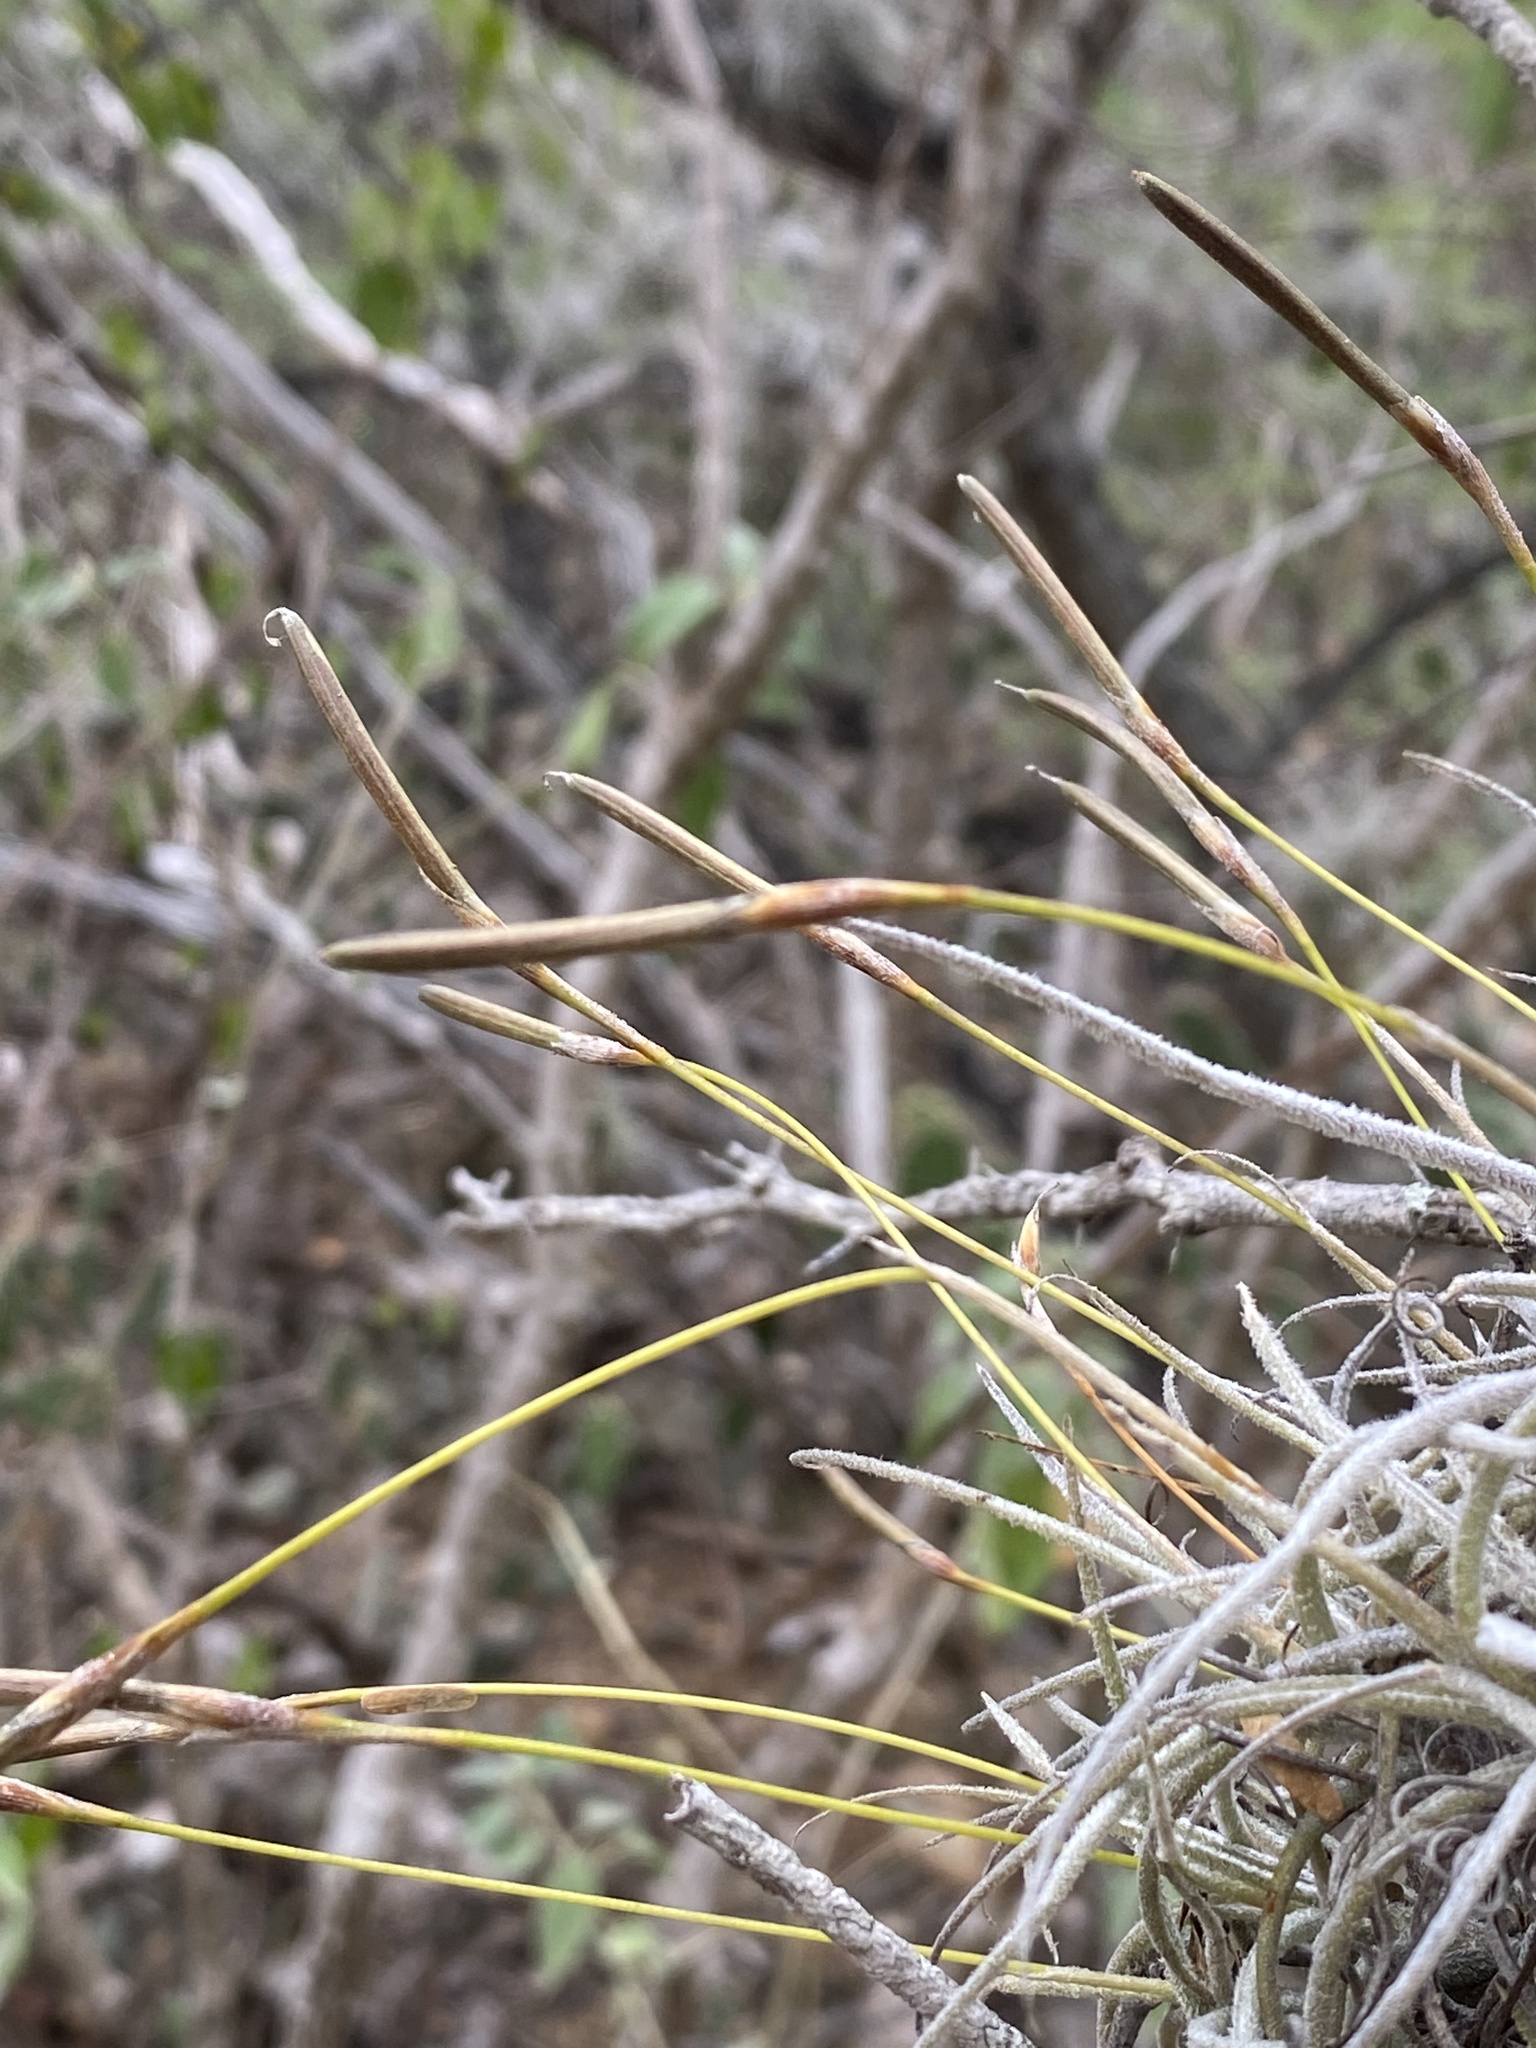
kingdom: Plantae
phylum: Tracheophyta
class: Liliopsida
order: Poales
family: Bromeliaceae
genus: Tillandsia
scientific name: Tillandsia recurvata
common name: Small ballmoss
